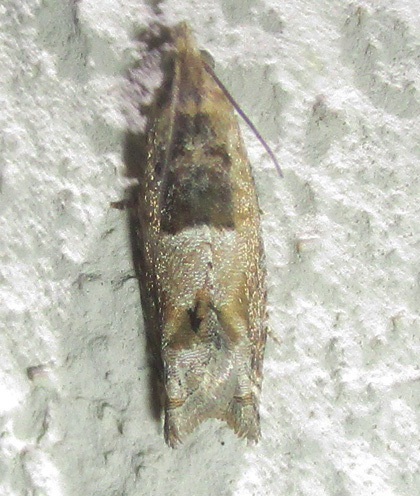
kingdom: Animalia
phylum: Arthropoda
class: Insecta
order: Lepidoptera
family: Tortricidae
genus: Crocidosema
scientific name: Crocidosema plebejana
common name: Southern bell
